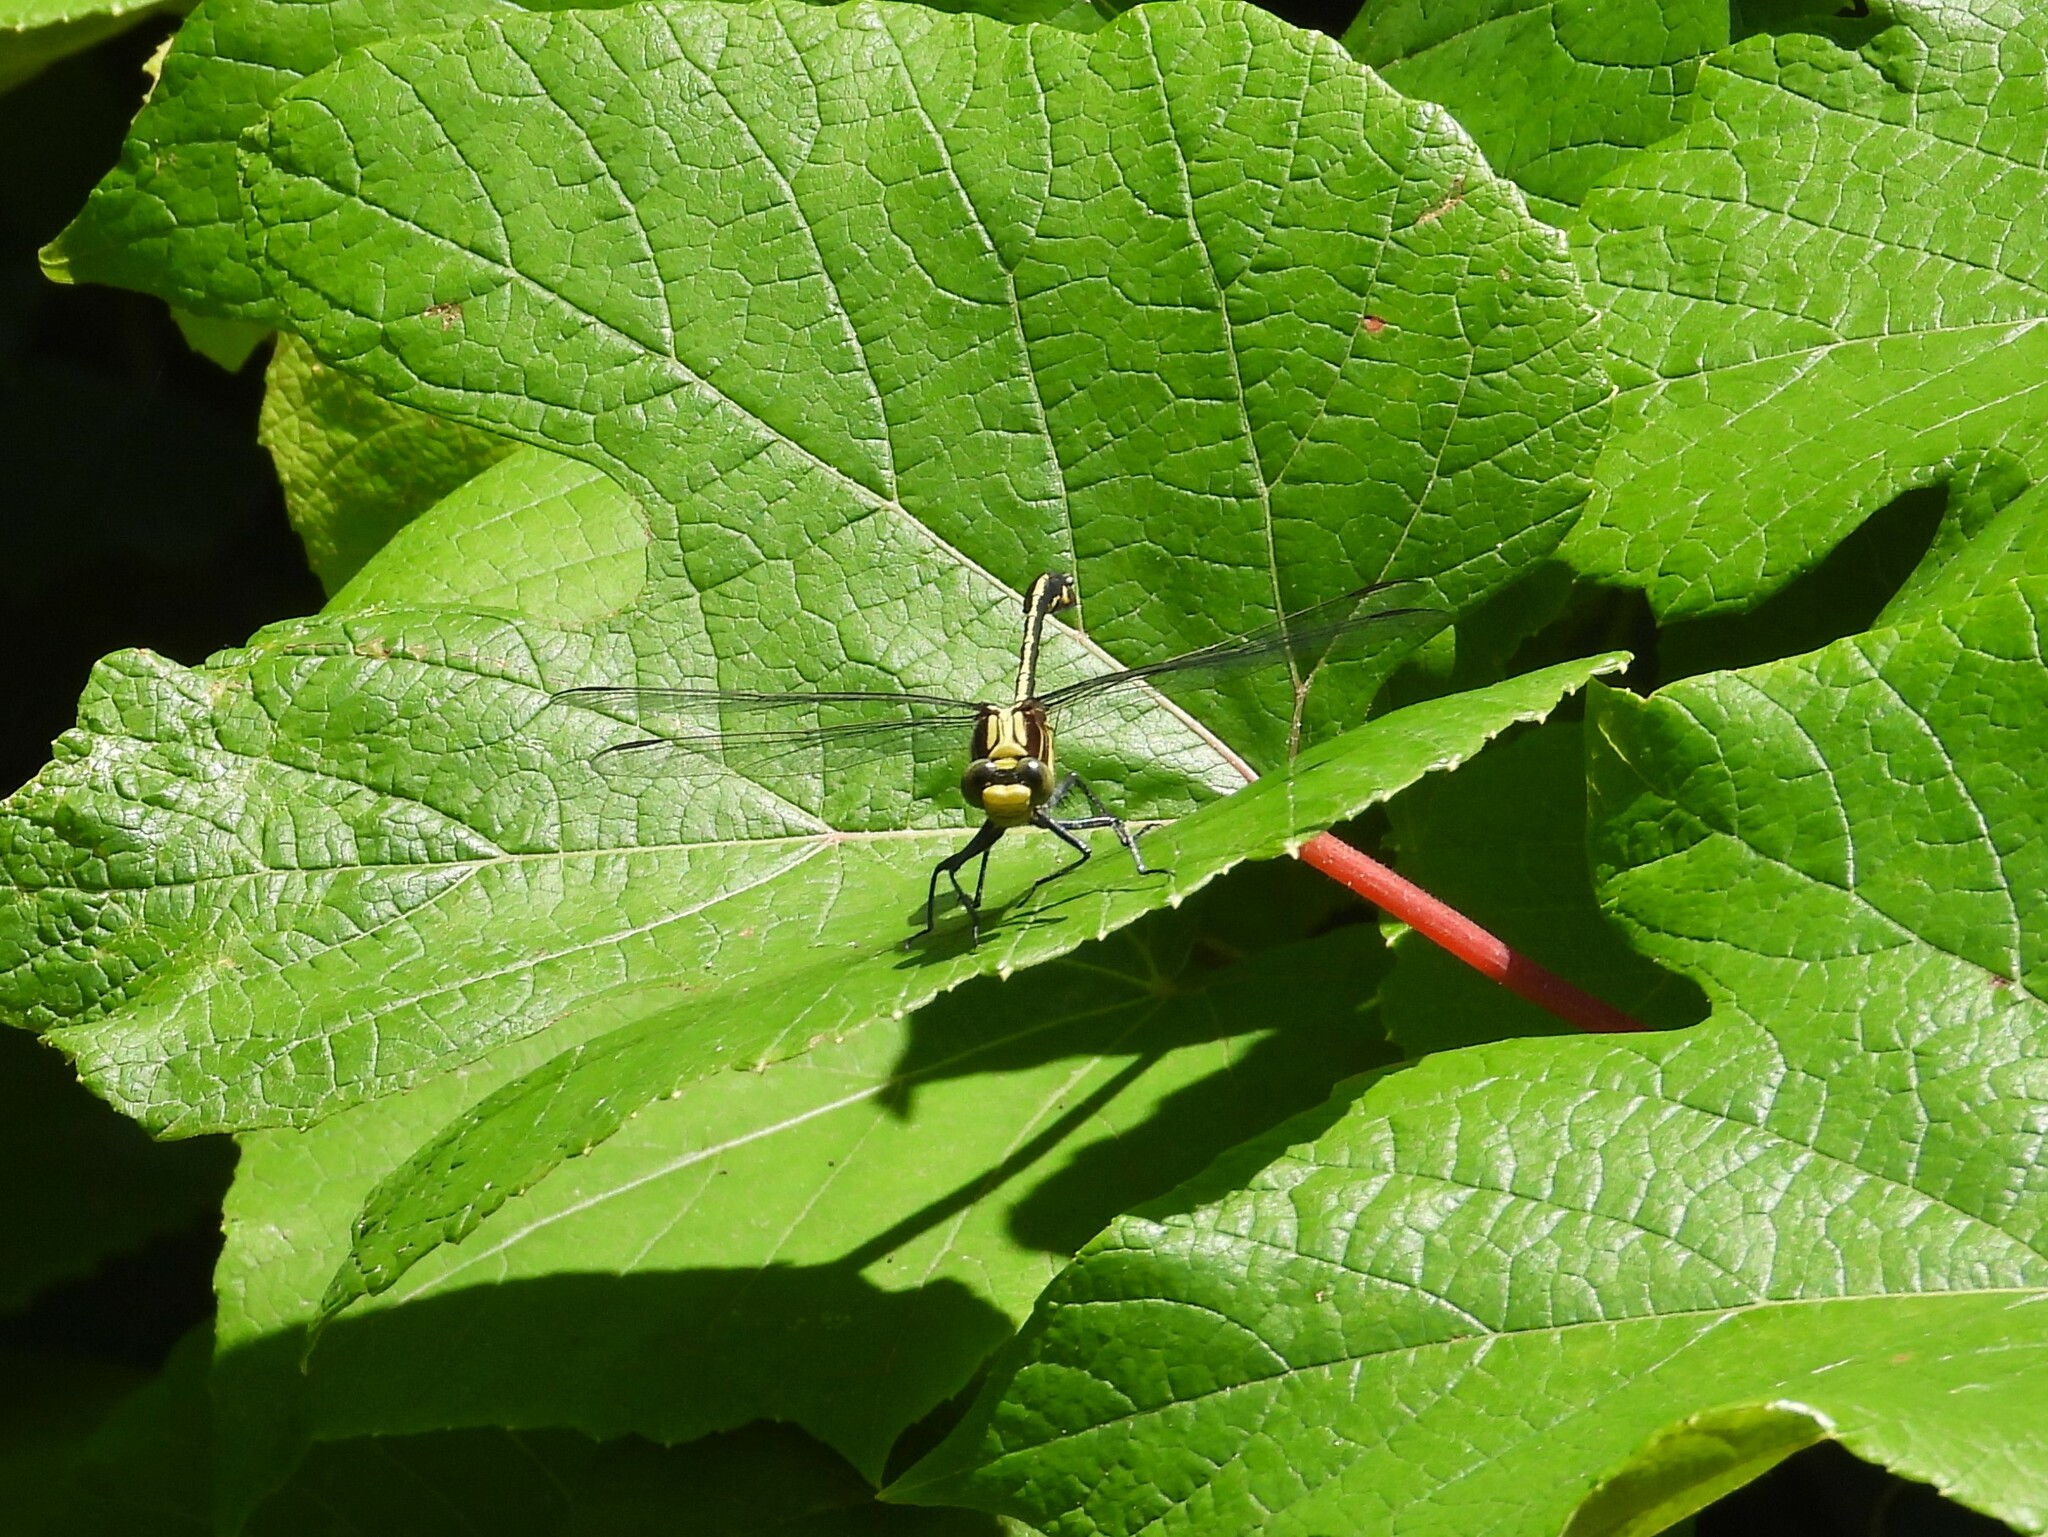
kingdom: Animalia
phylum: Arthropoda
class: Insecta
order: Odonata
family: Gomphidae
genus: Dromogomphus
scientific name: Dromogomphus spinosus
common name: Black-shouldered spinyleg
